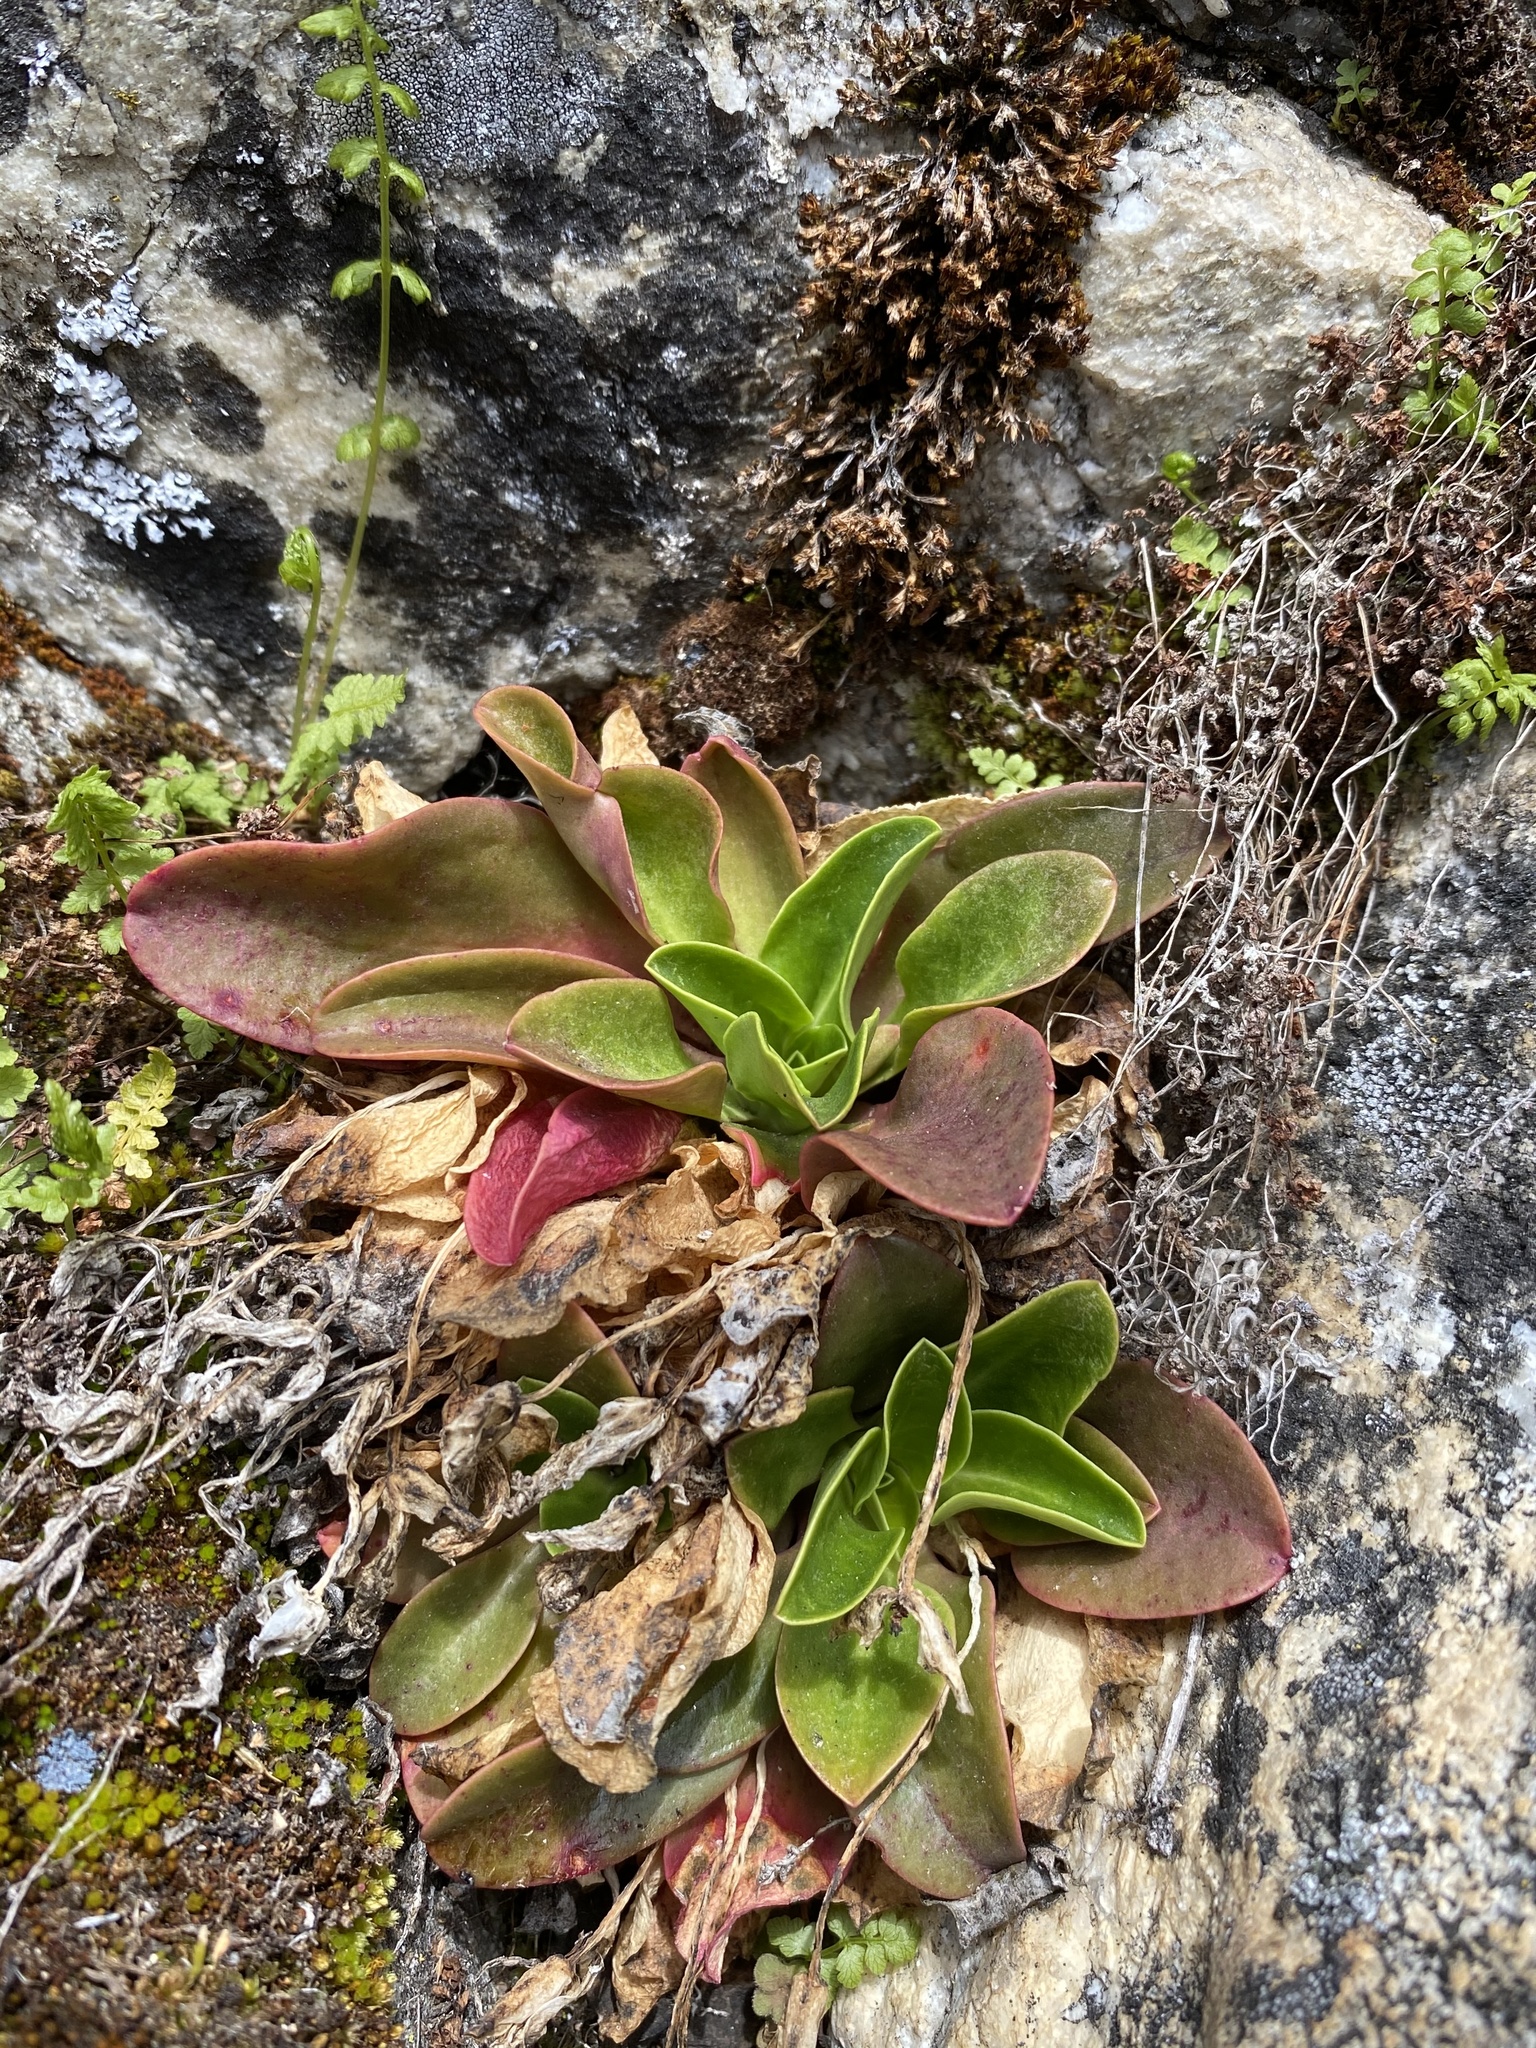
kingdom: Plantae
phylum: Tracheophyta
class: Magnoliopsida
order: Caryophyllales
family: Montiaceae
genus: Lewisiopsis
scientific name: Lewisiopsis tweedyi
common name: Tweedy's pussypaws
